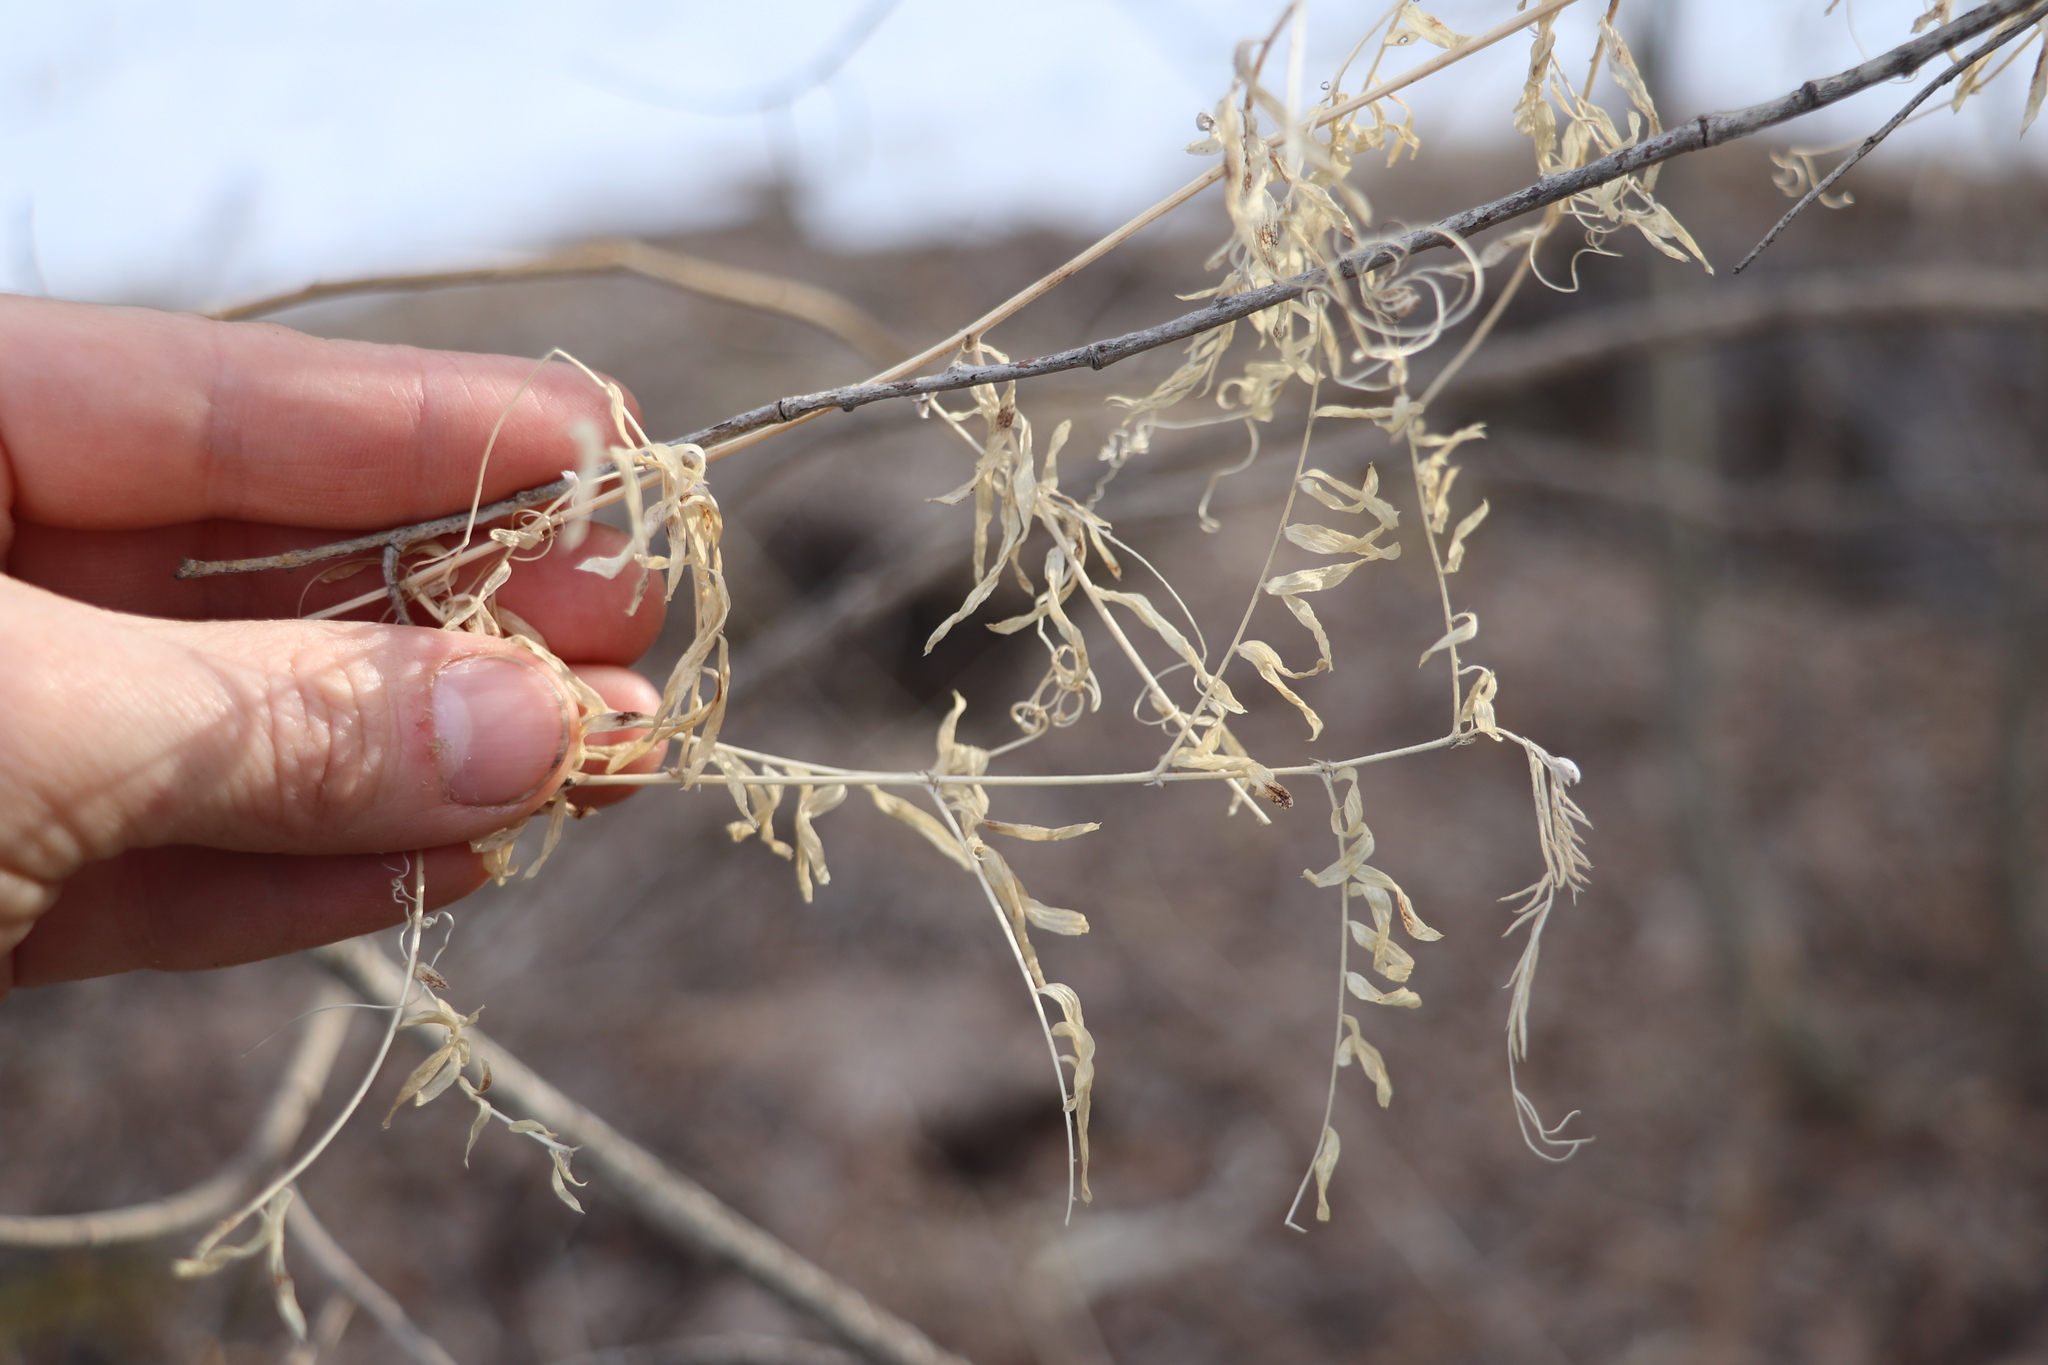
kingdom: Plantae
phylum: Tracheophyta
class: Magnoliopsida
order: Fabales
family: Fabaceae
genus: Vicia
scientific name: Vicia tetrasperma
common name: Smooth tare
